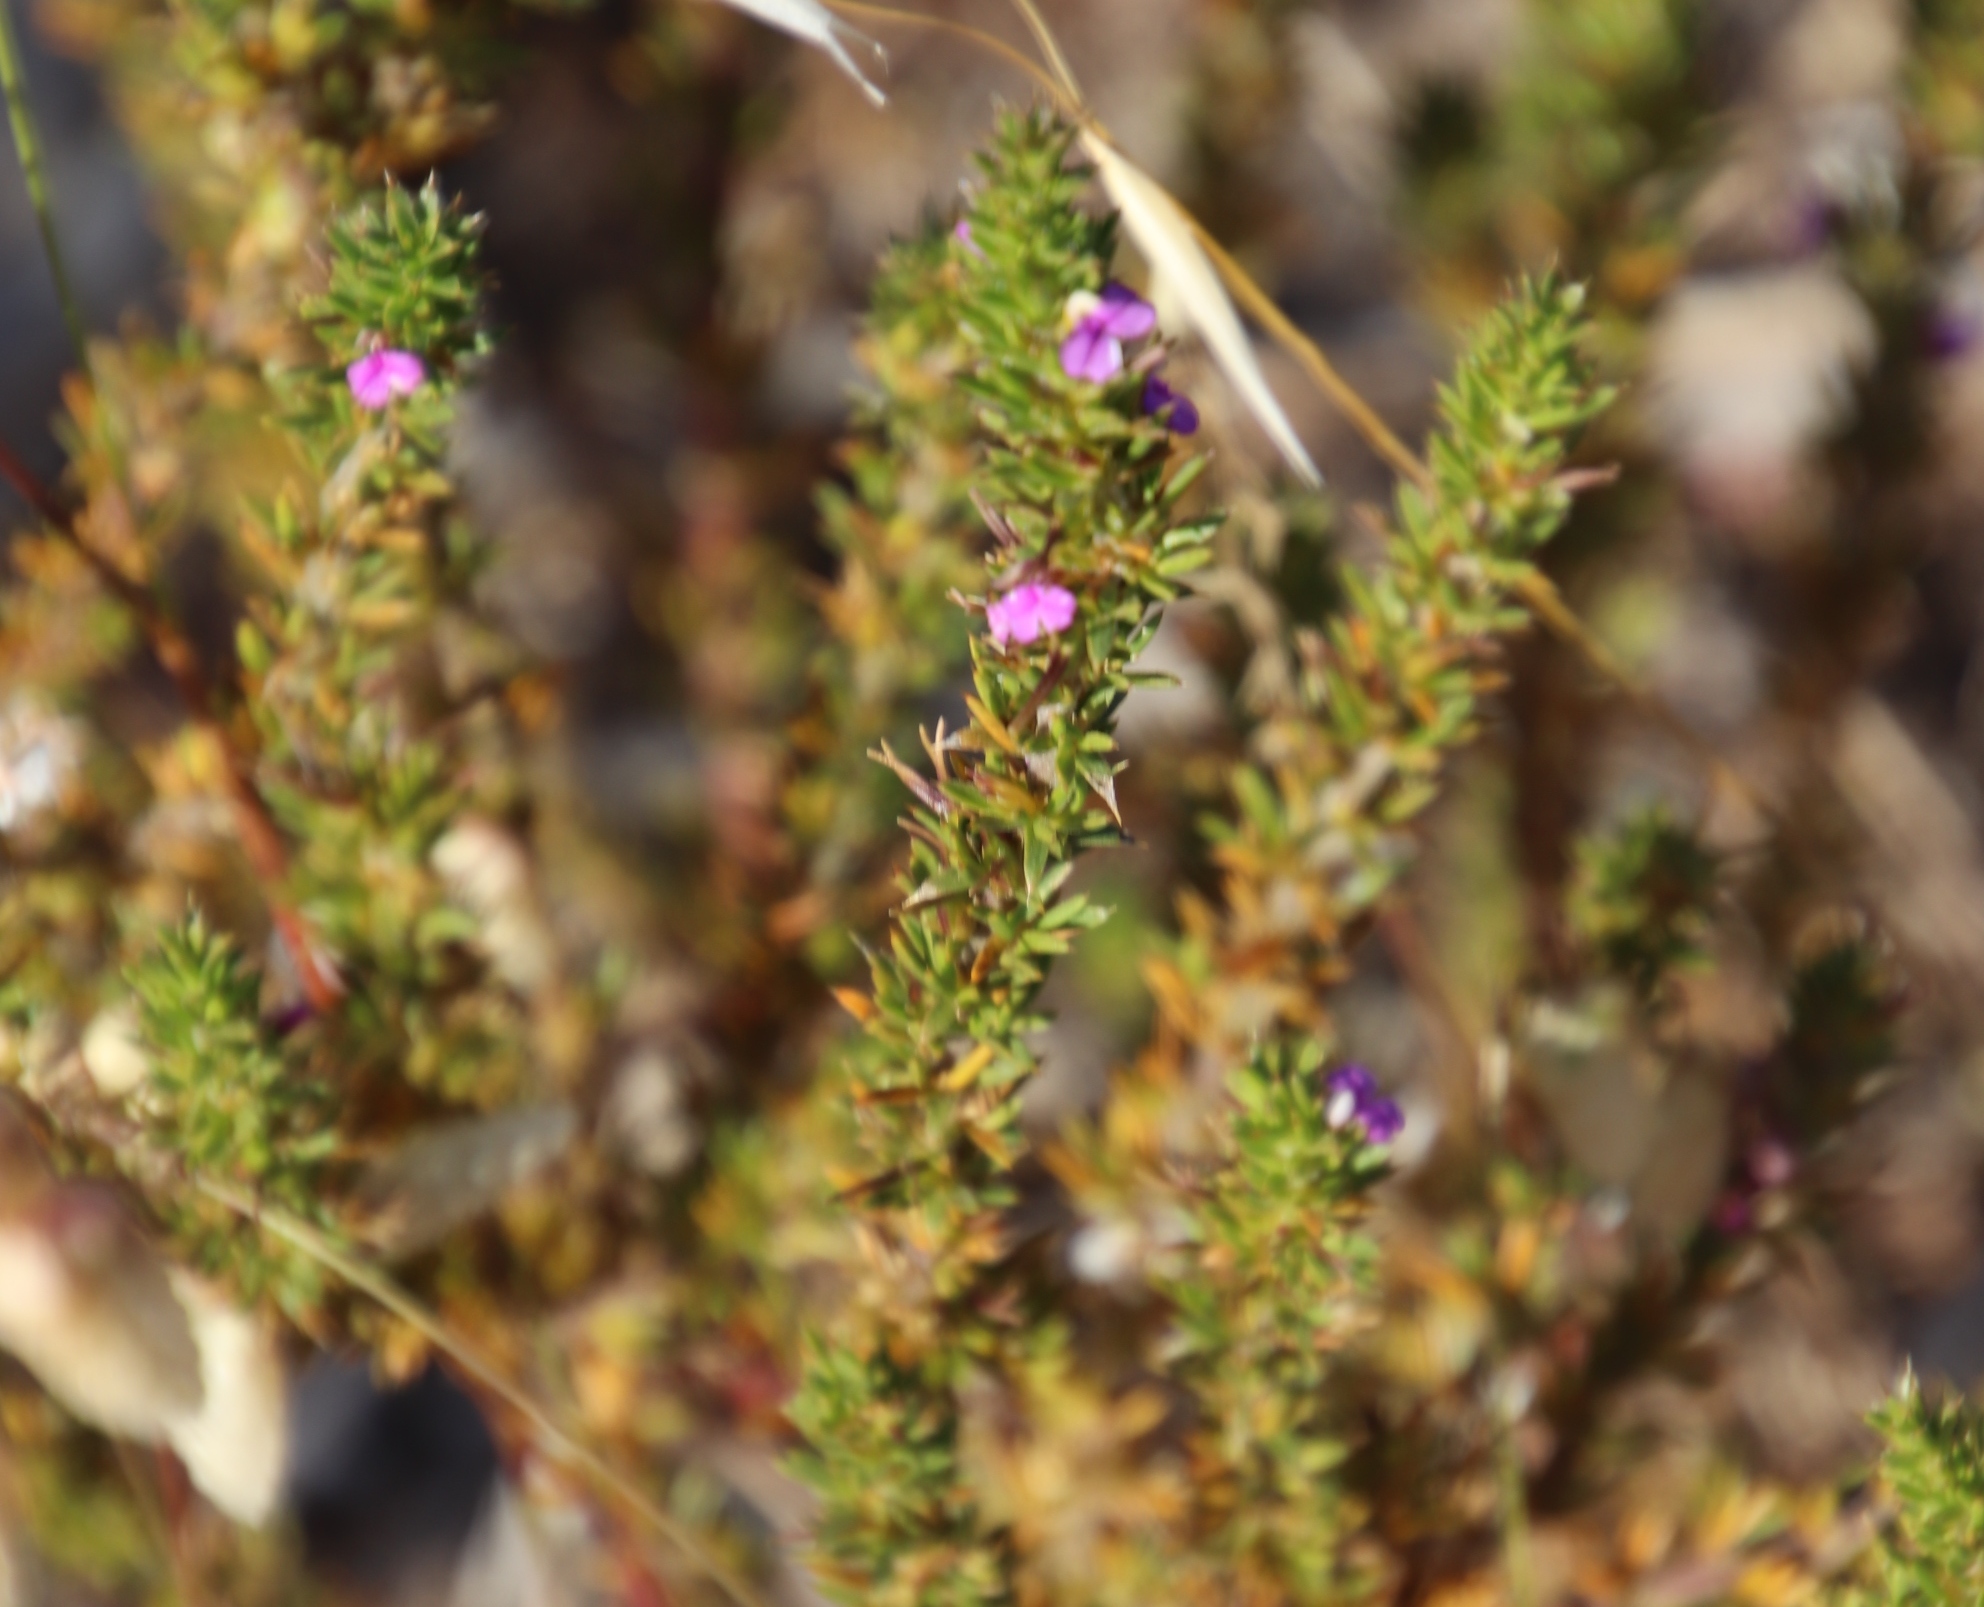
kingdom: Plantae
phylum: Tracheophyta
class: Magnoliopsida
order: Fabales
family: Polygalaceae
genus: Muraltia
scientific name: Muraltia heisteria
